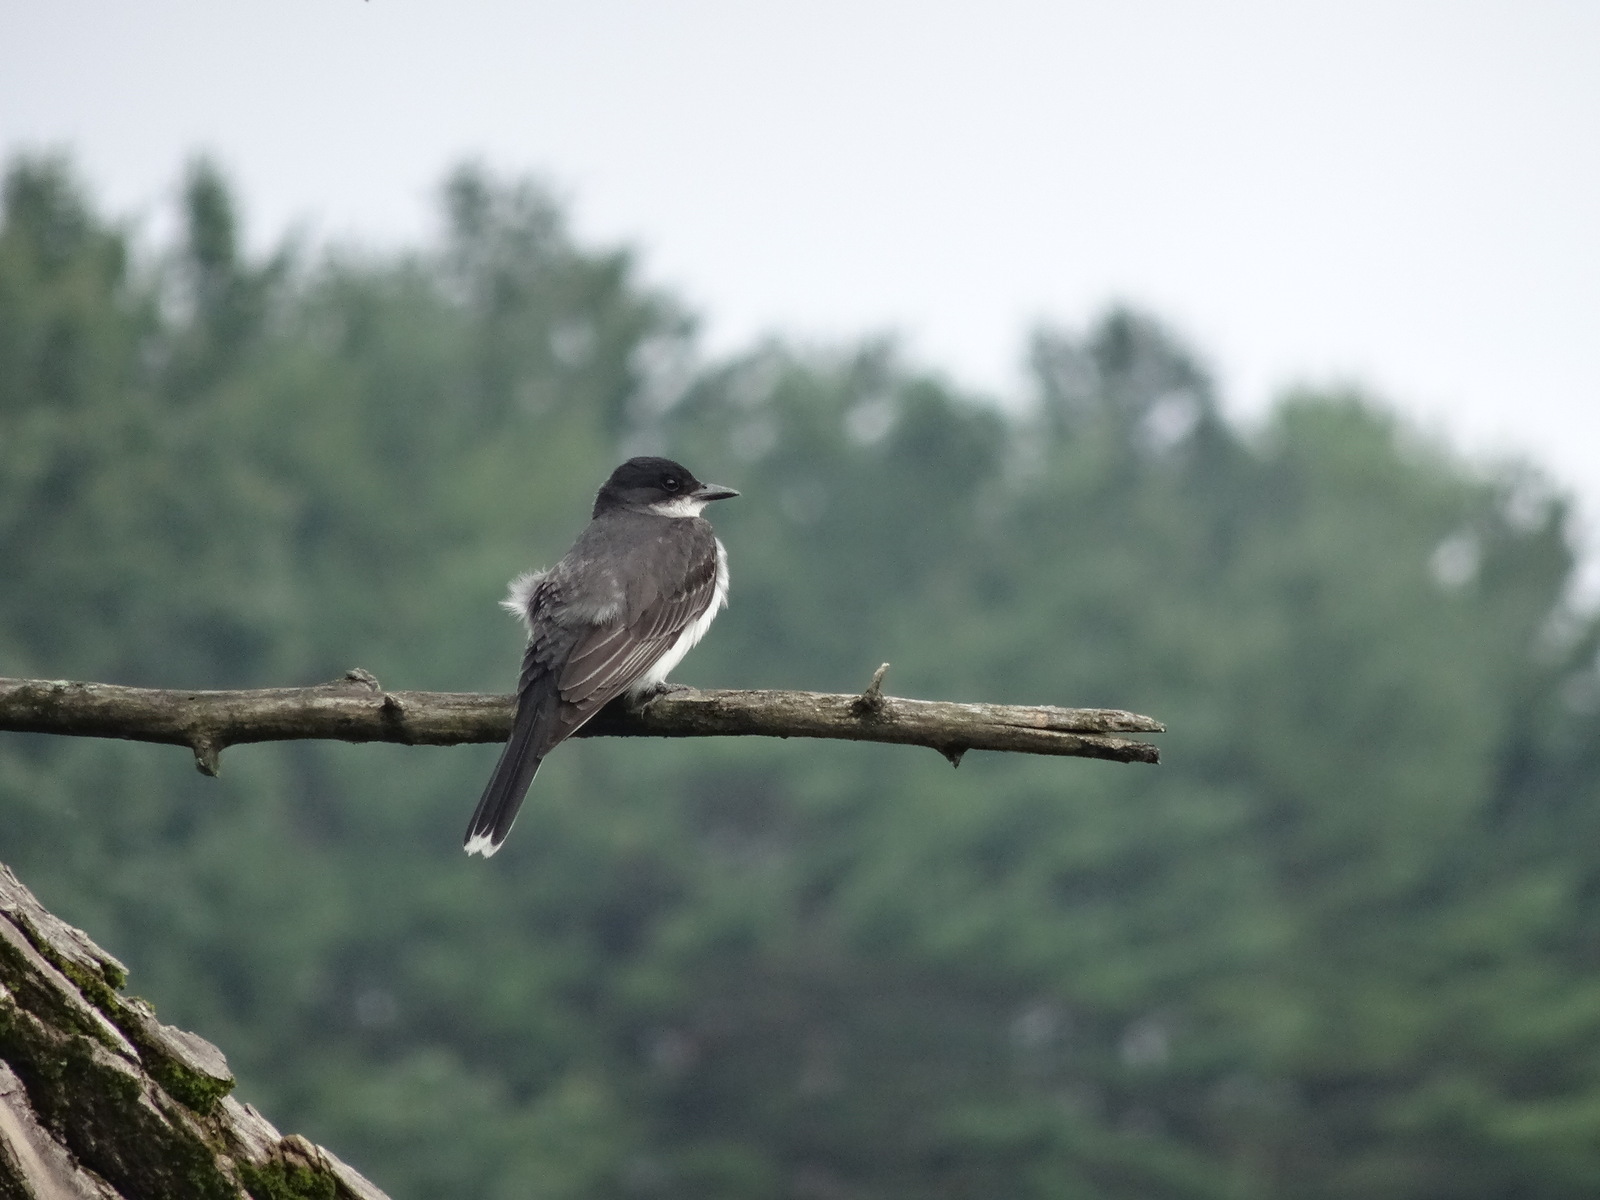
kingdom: Animalia
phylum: Chordata
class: Aves
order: Passeriformes
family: Tyrannidae
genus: Tyrannus
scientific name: Tyrannus tyrannus
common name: Eastern kingbird
